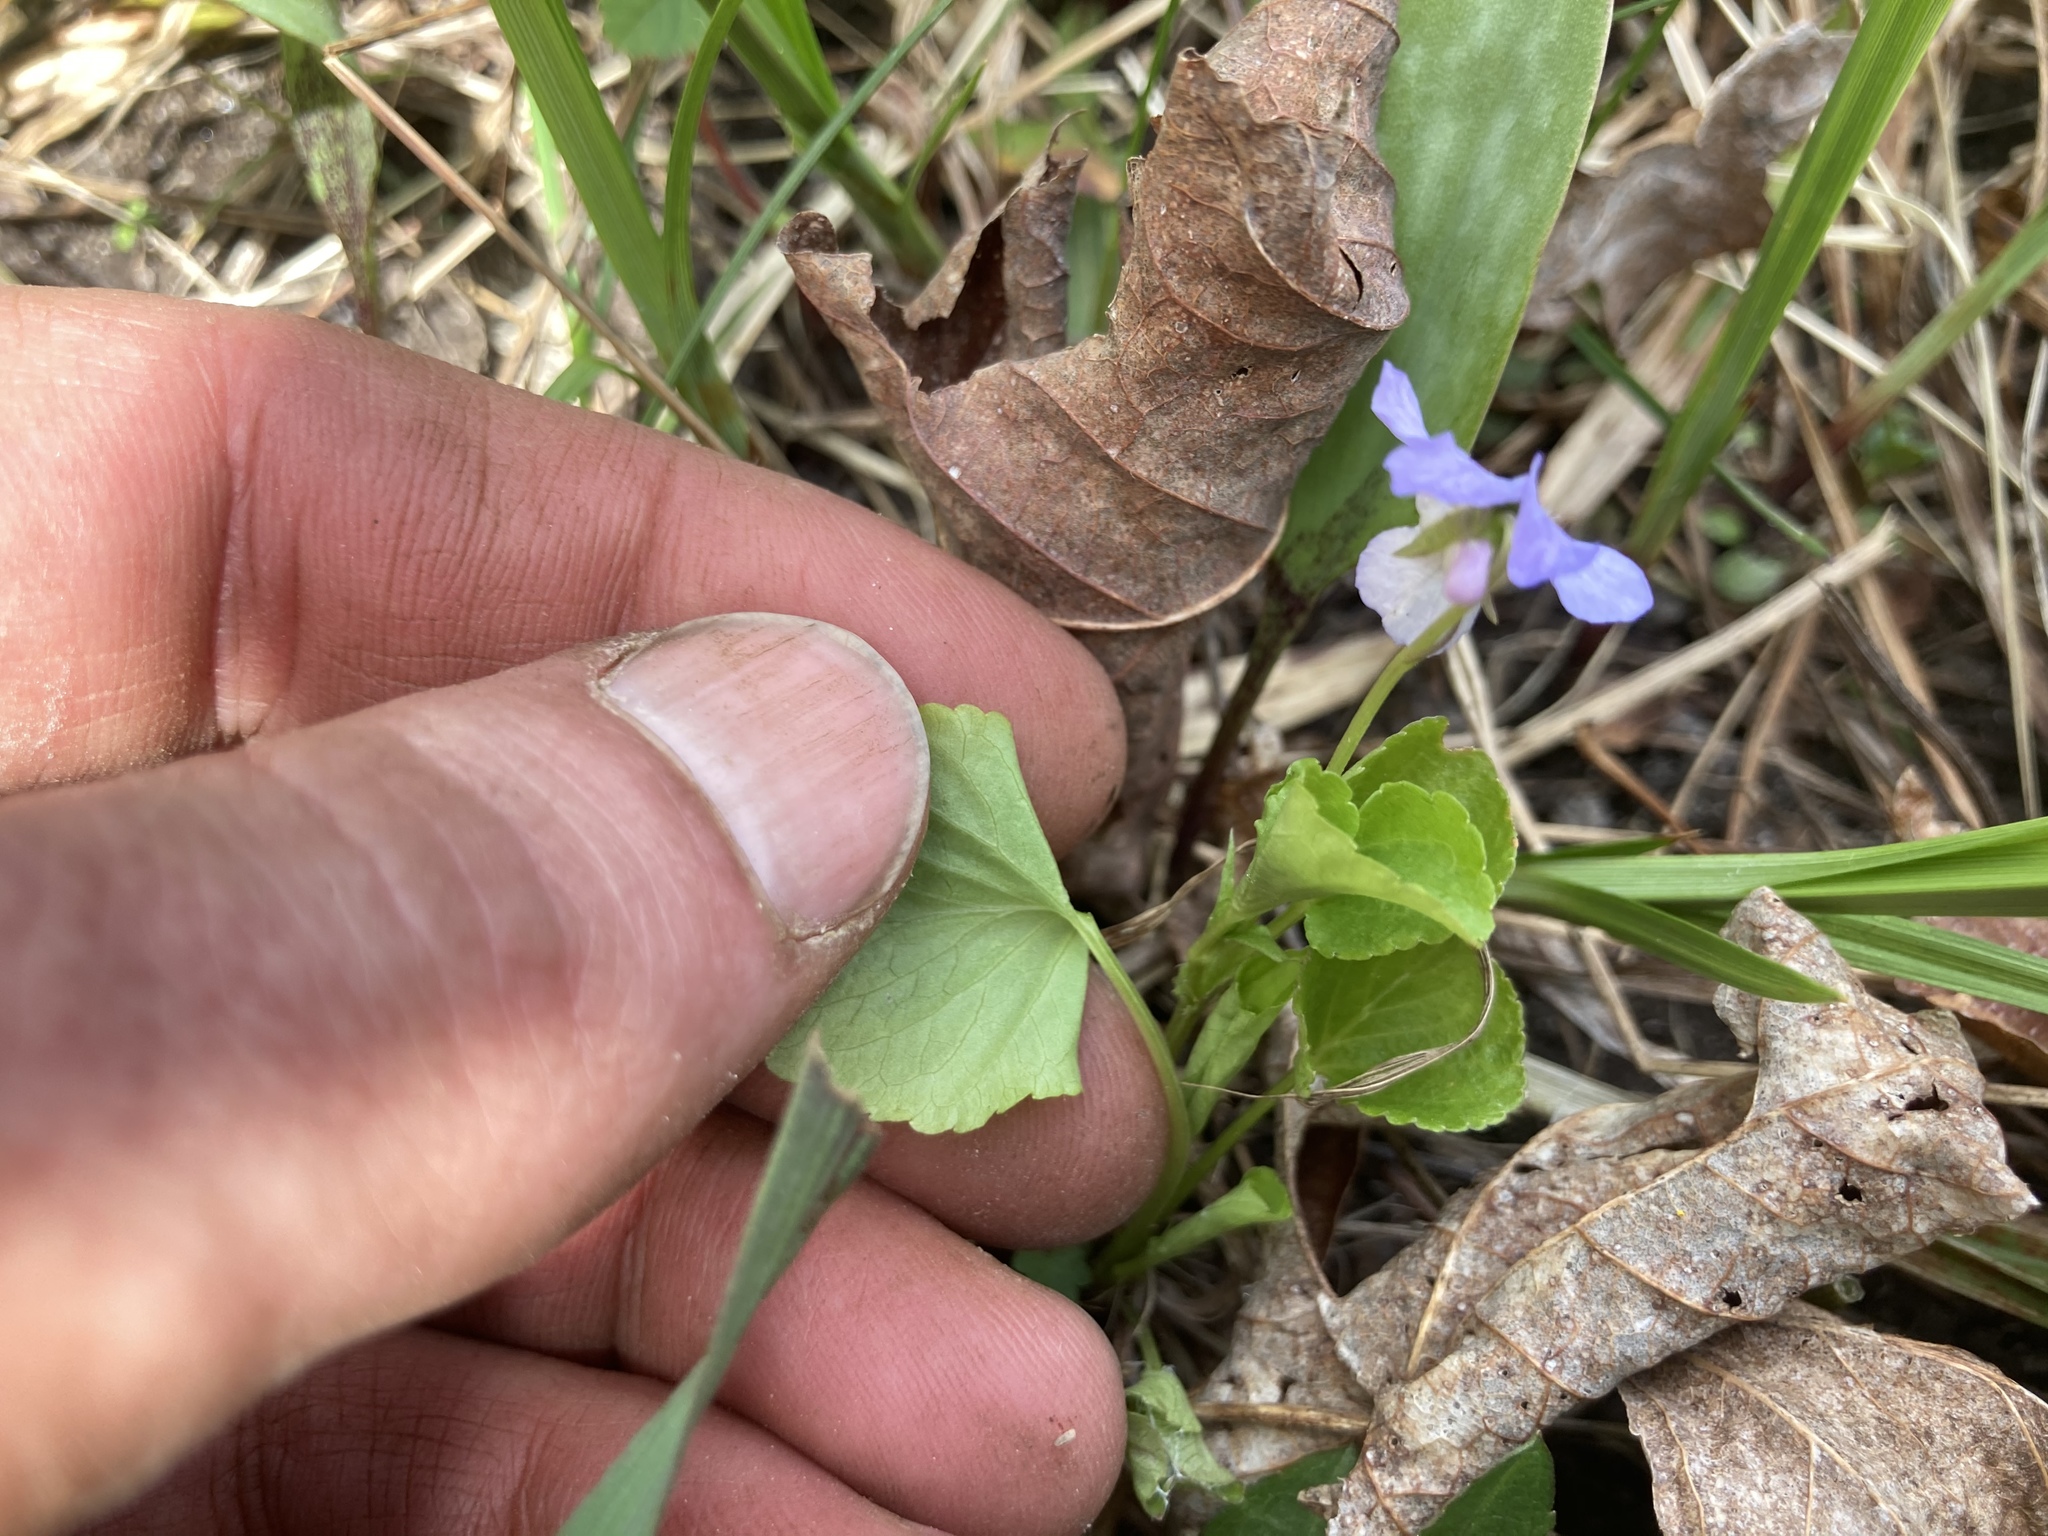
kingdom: Plantae
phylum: Tracheophyta
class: Magnoliopsida
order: Malpighiales
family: Violaceae
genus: Viola
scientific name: Viola labradorica
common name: Labrador violet
